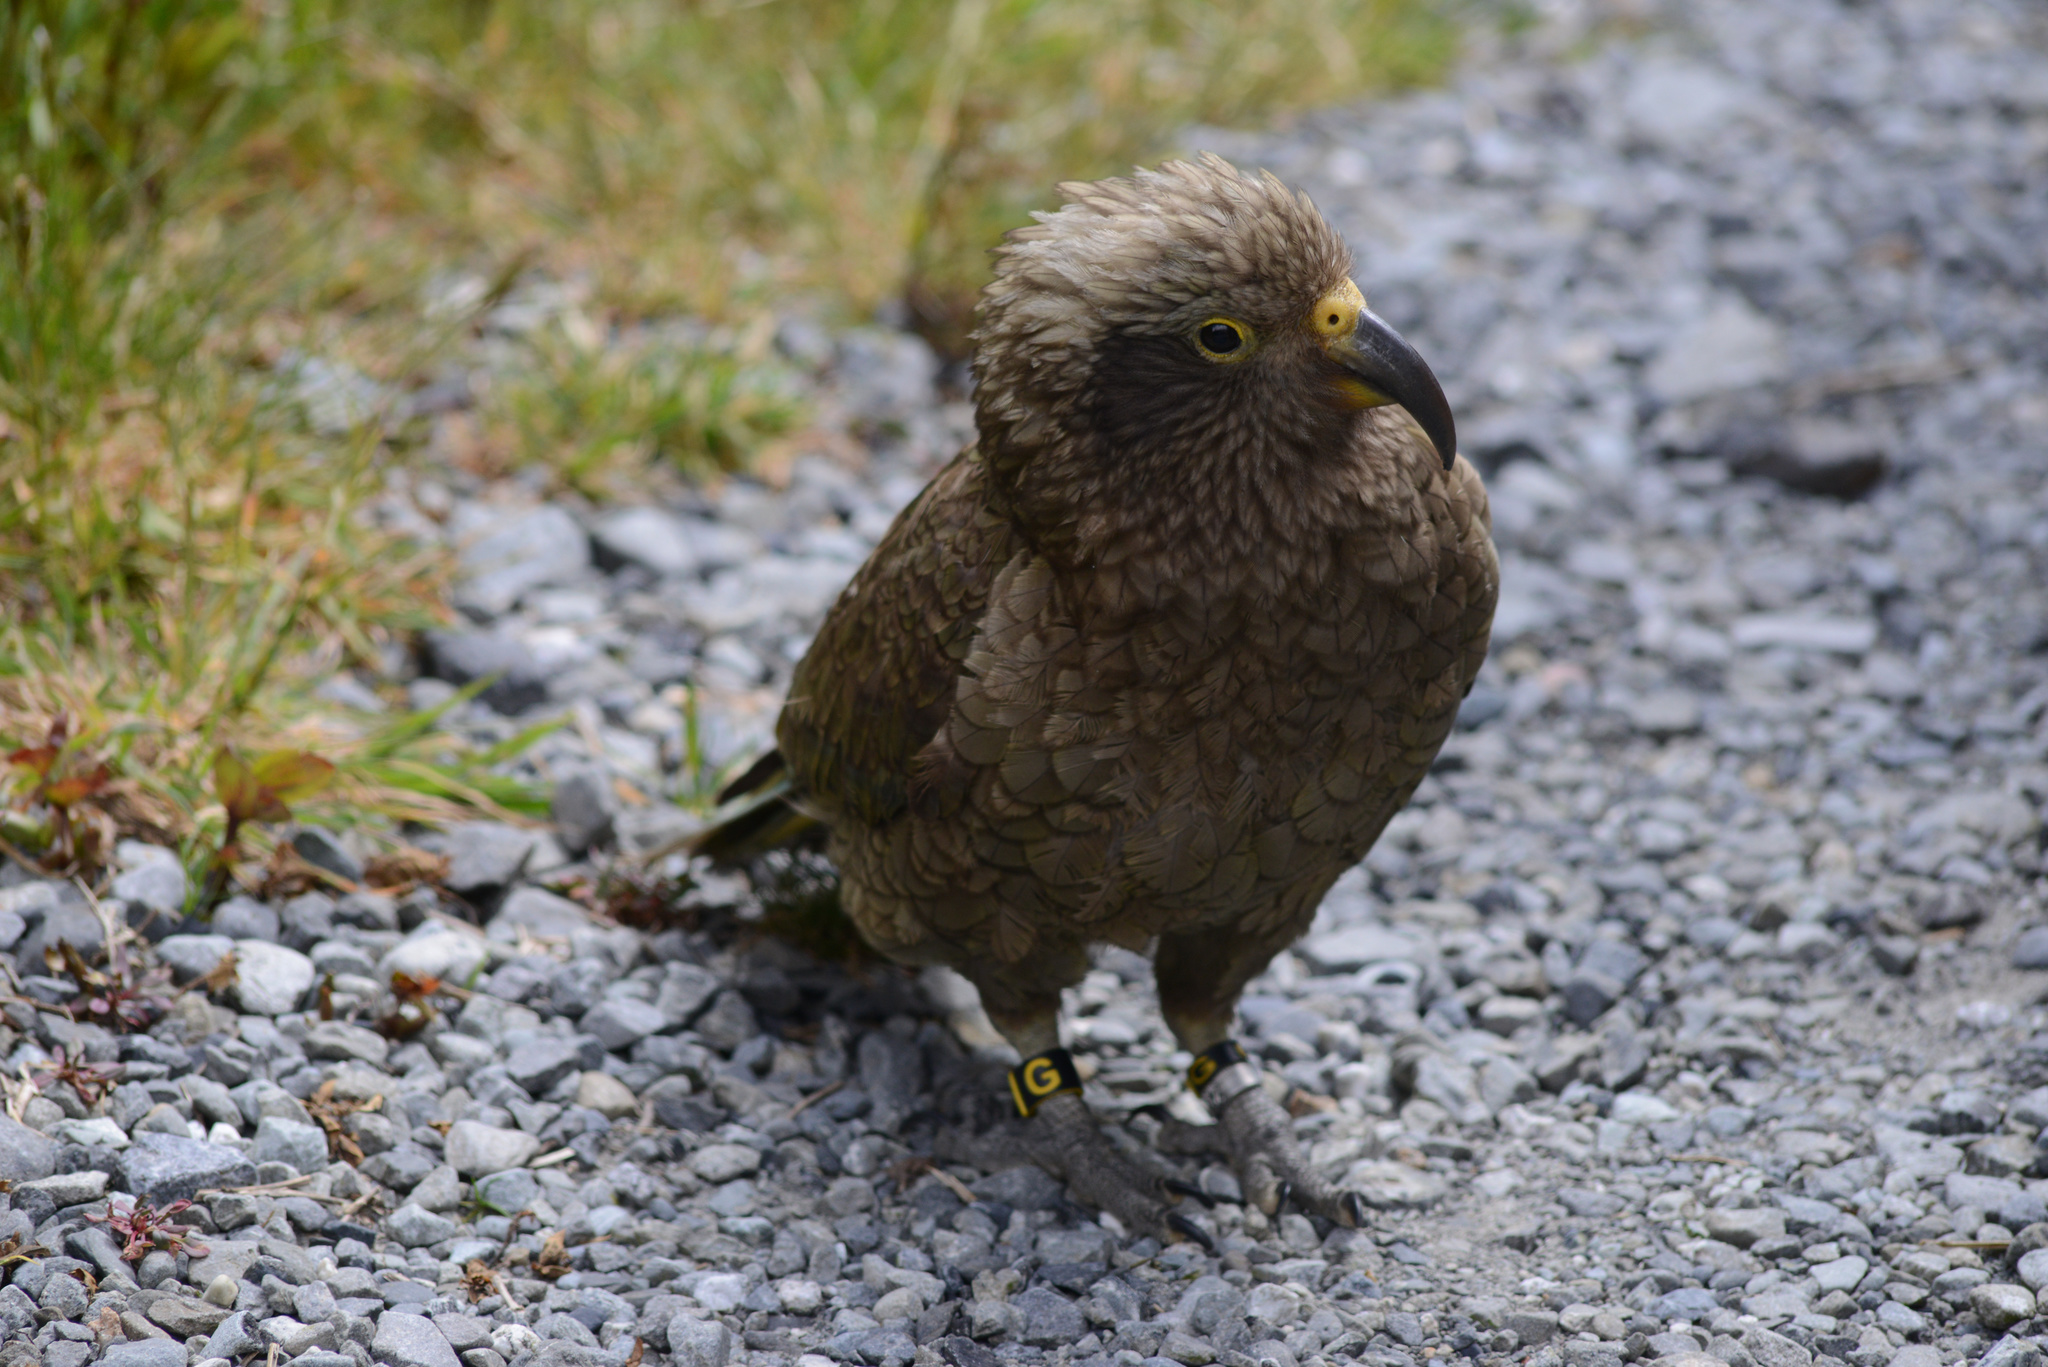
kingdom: Animalia
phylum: Chordata
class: Aves
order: Psittaciformes
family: Psittacidae
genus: Nestor
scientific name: Nestor notabilis
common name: Kea
